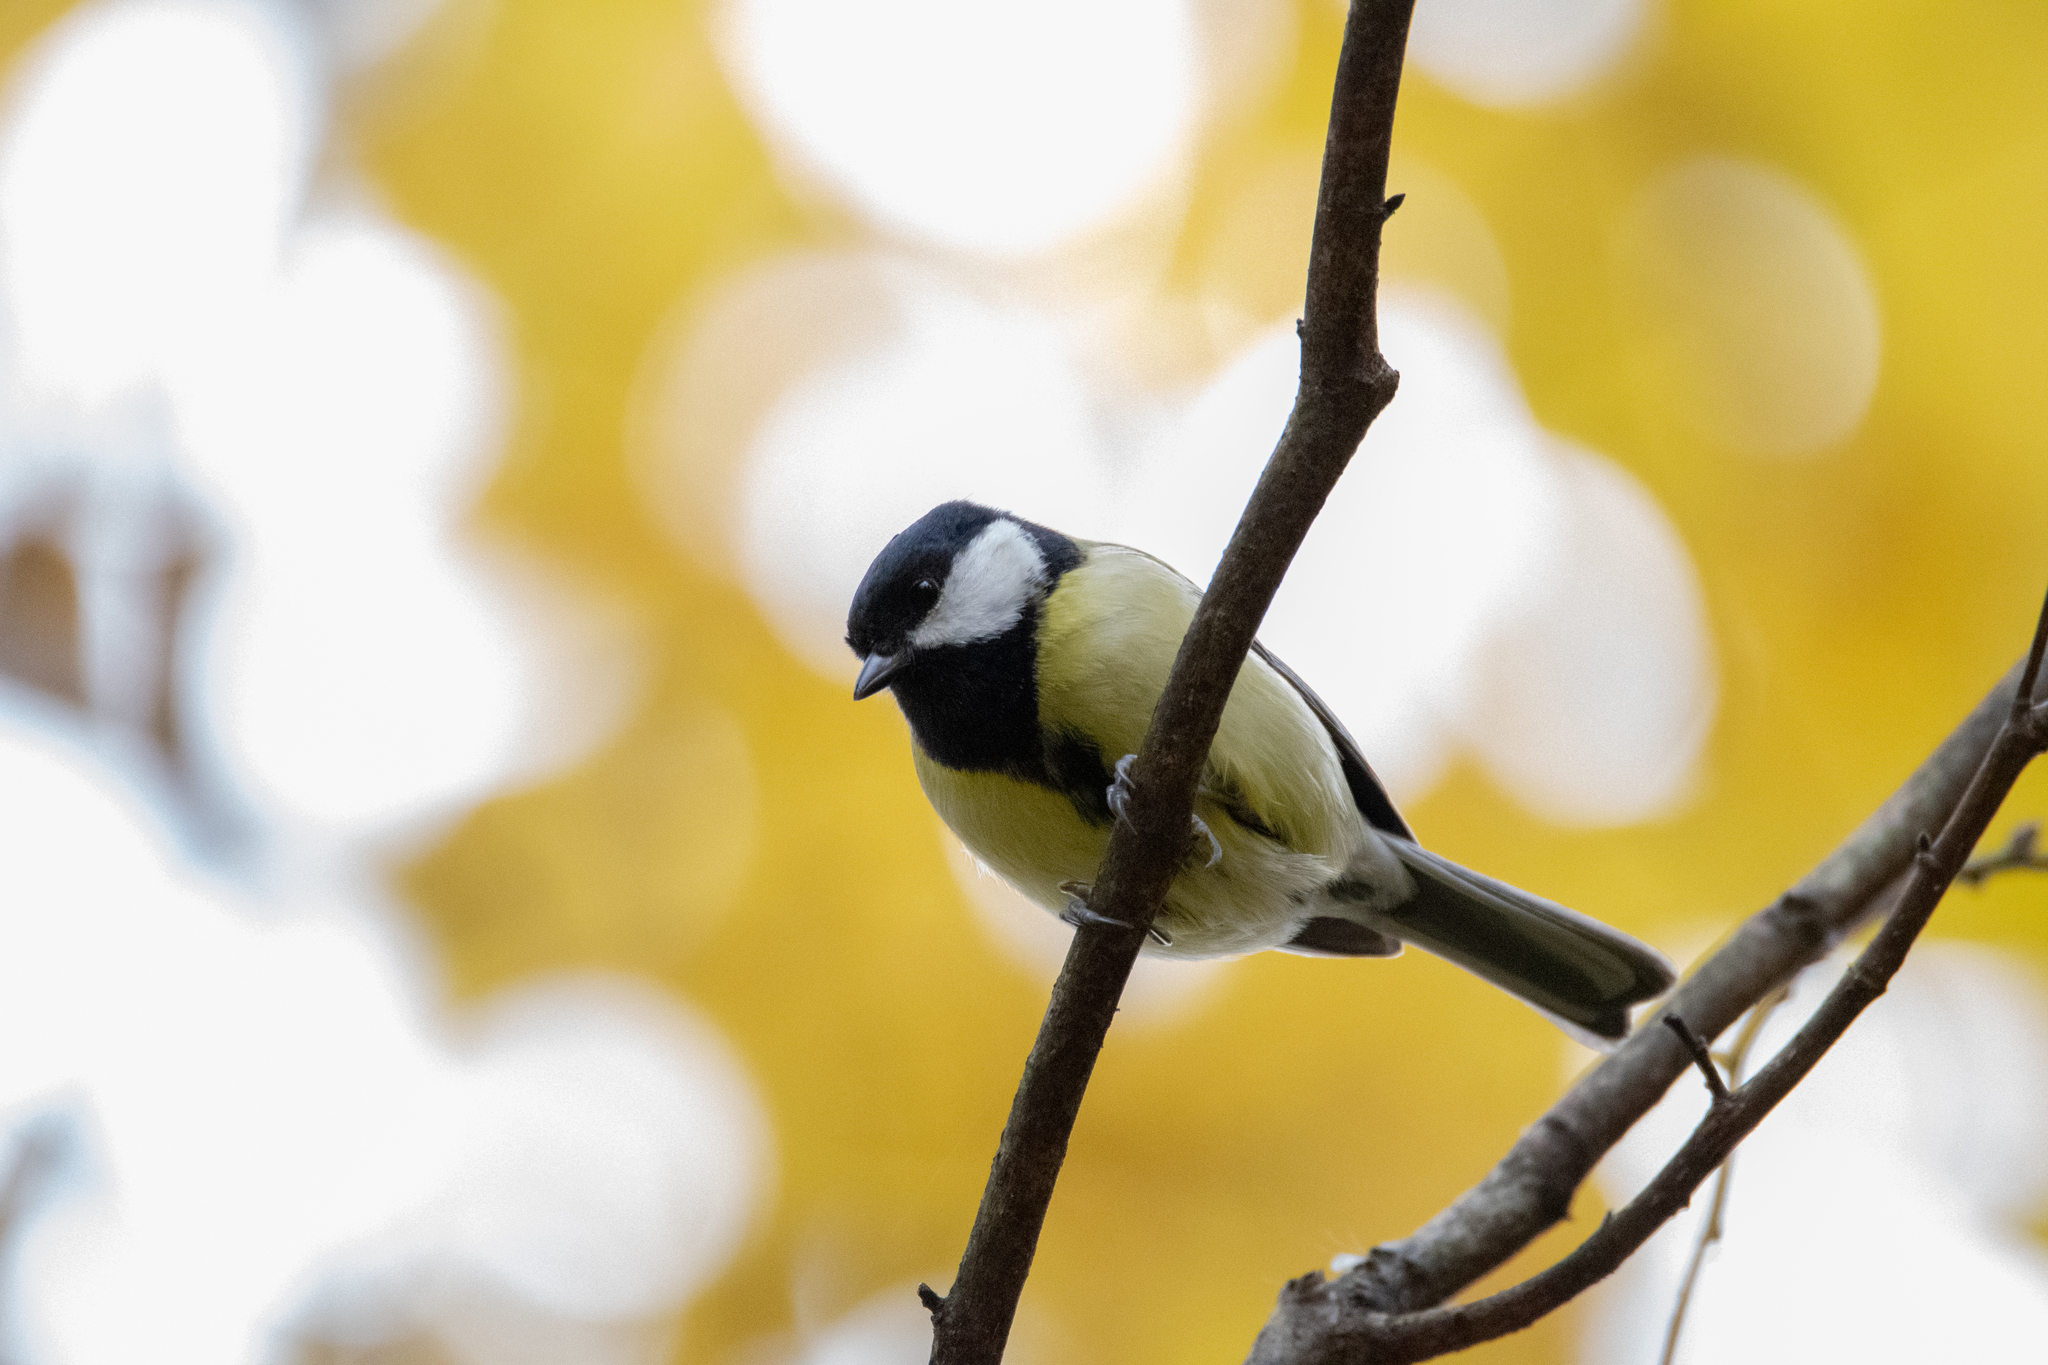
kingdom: Animalia
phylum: Chordata
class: Aves
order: Passeriformes
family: Paridae
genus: Parus
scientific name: Parus major
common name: Great tit
